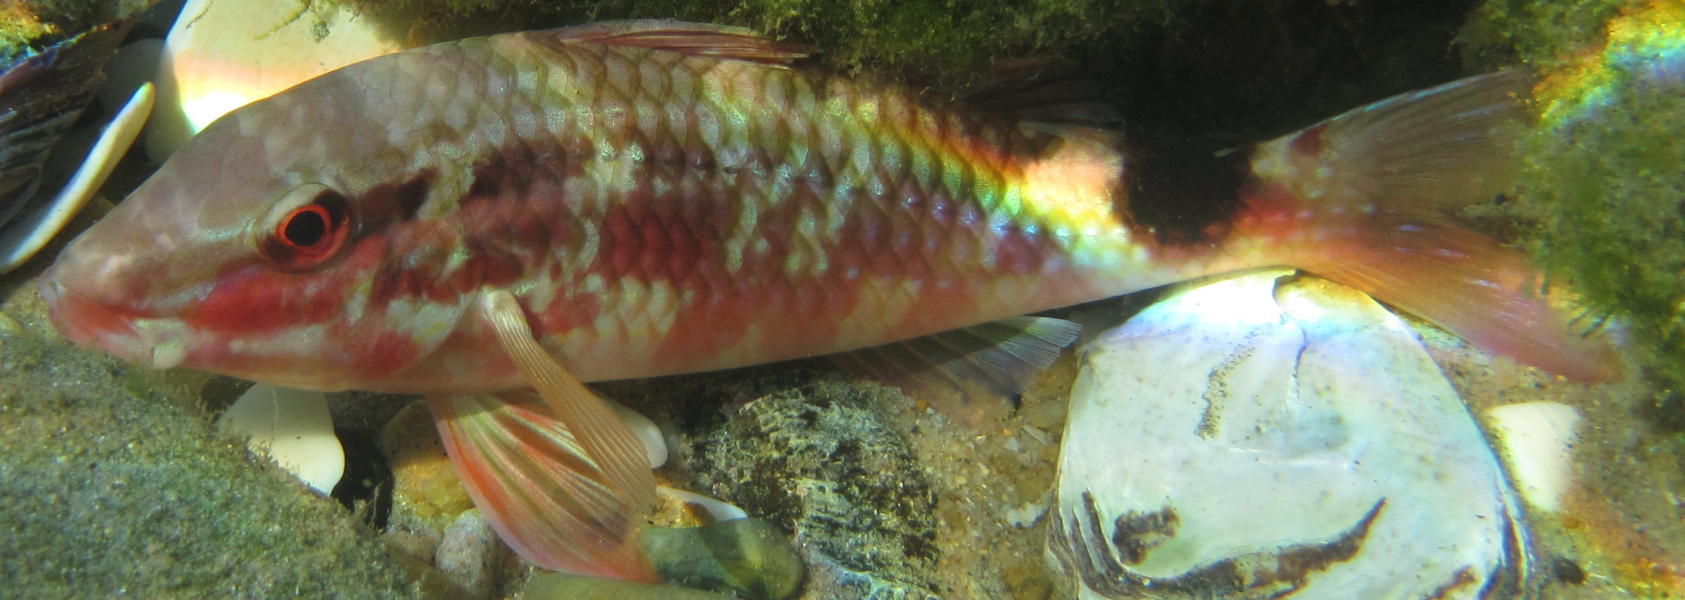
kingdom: Animalia
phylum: Chordata
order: Perciformes
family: Mullidae
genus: Parupeneus
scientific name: Parupeneus rubescens
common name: Rosy goatfish
